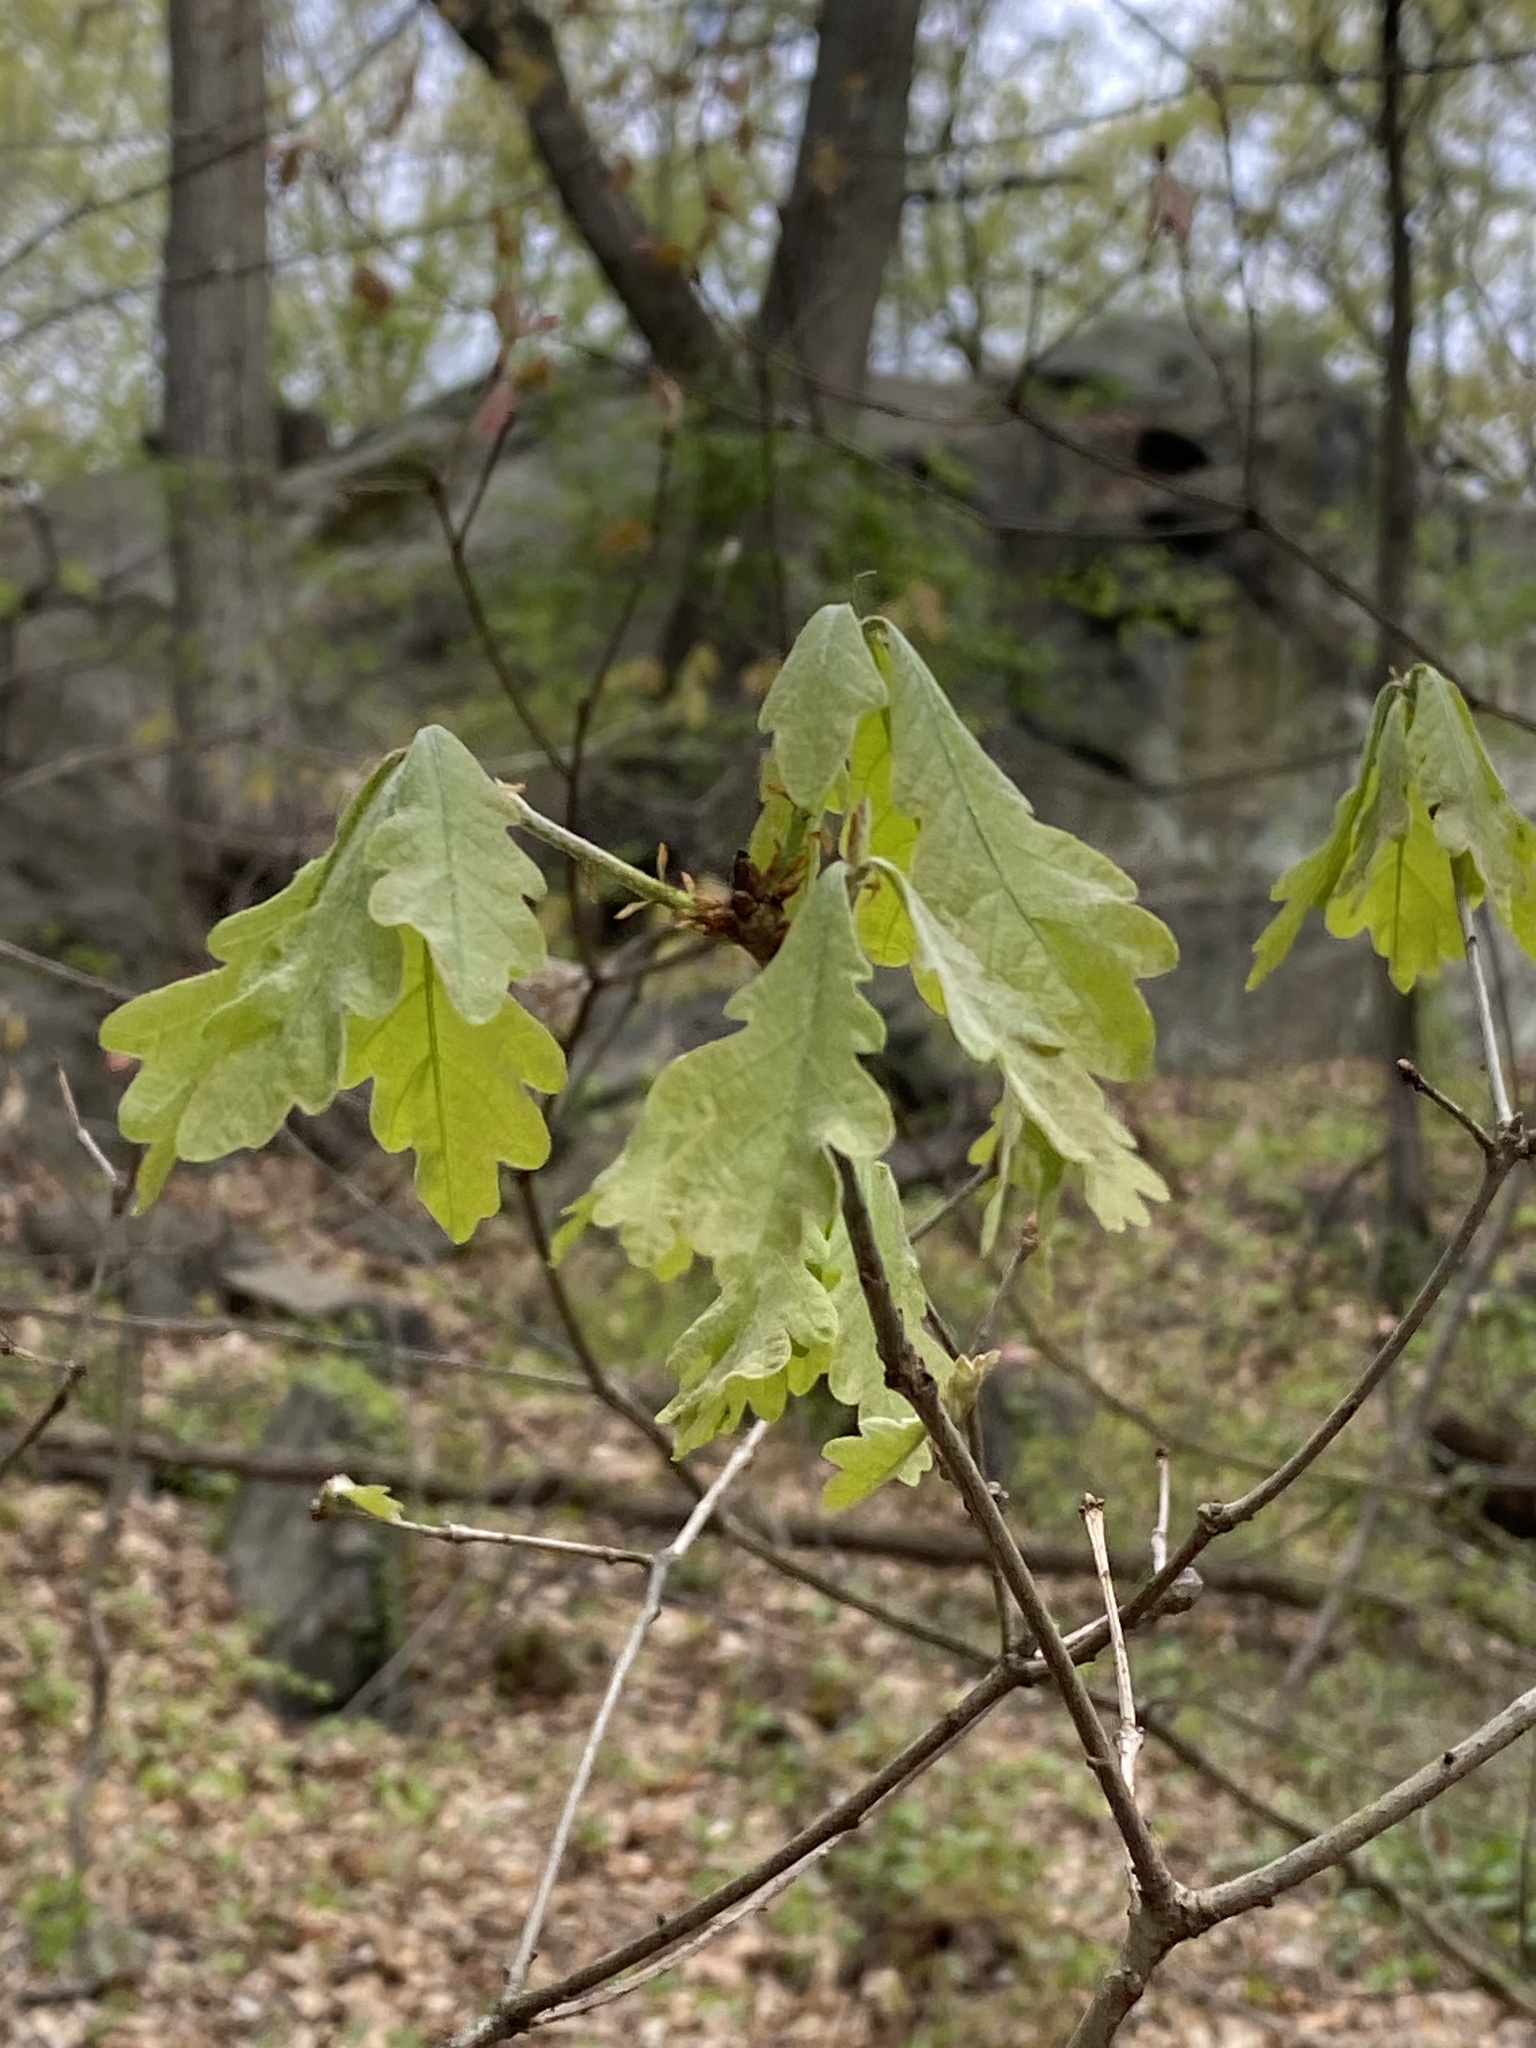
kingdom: Plantae
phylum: Tracheophyta
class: Magnoliopsida
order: Fagales
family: Fagaceae
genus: Quercus
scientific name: Quercus alba
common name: White oak
